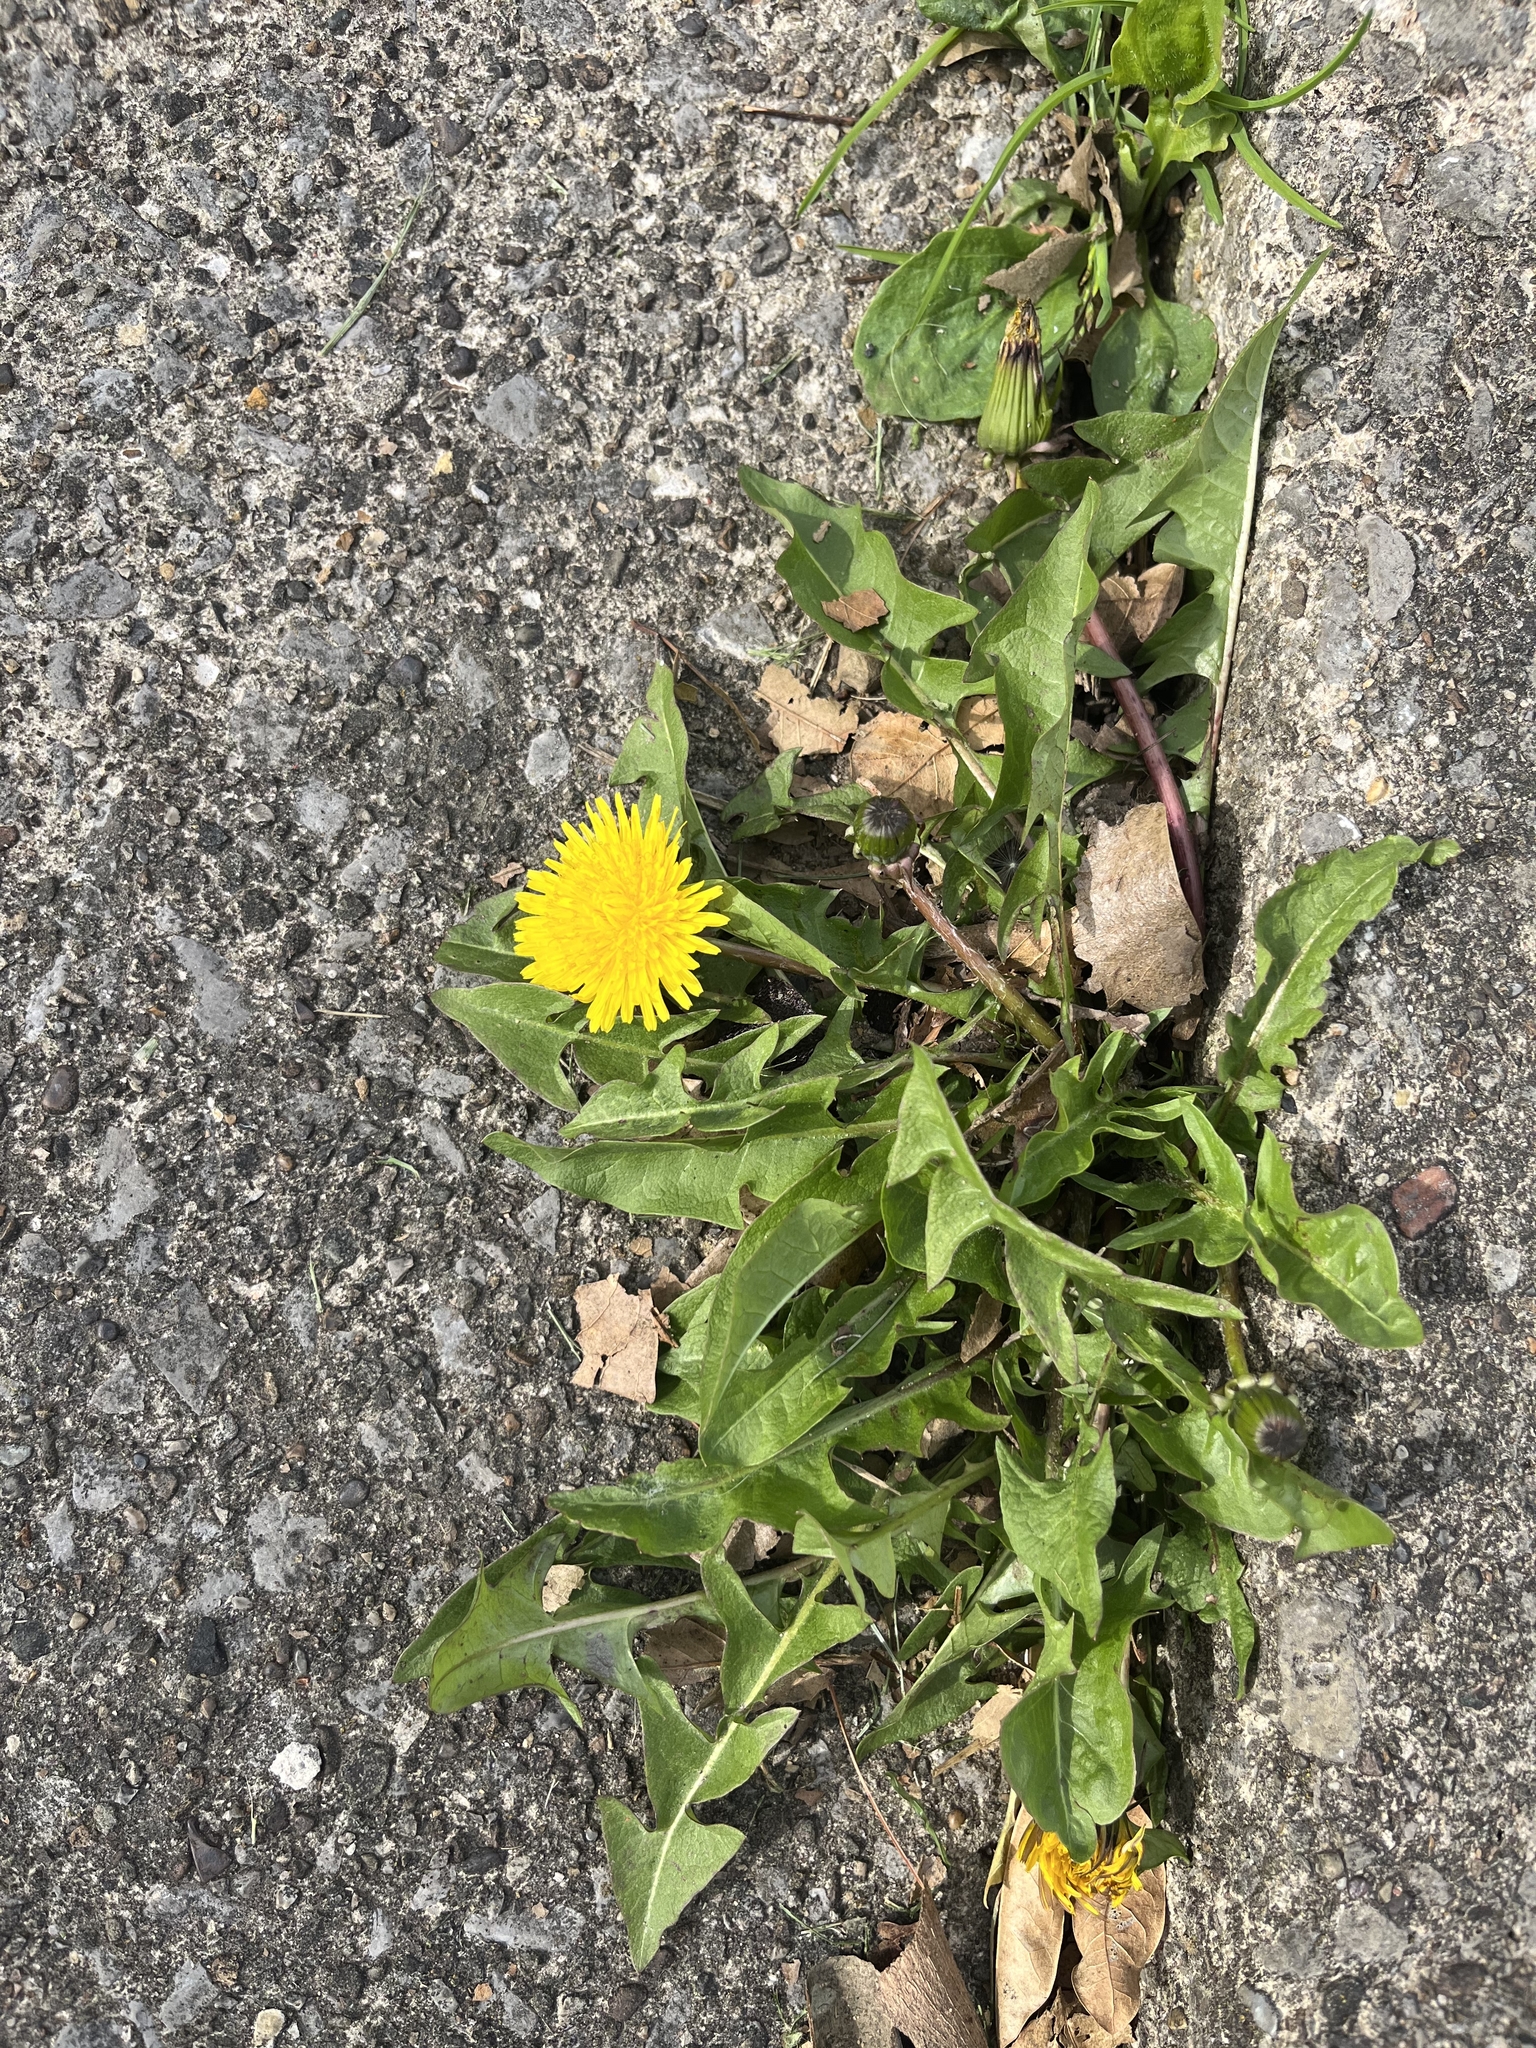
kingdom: Plantae
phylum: Tracheophyta
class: Magnoliopsida
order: Asterales
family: Asteraceae
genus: Taraxacum
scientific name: Taraxacum officinale
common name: Common dandelion
